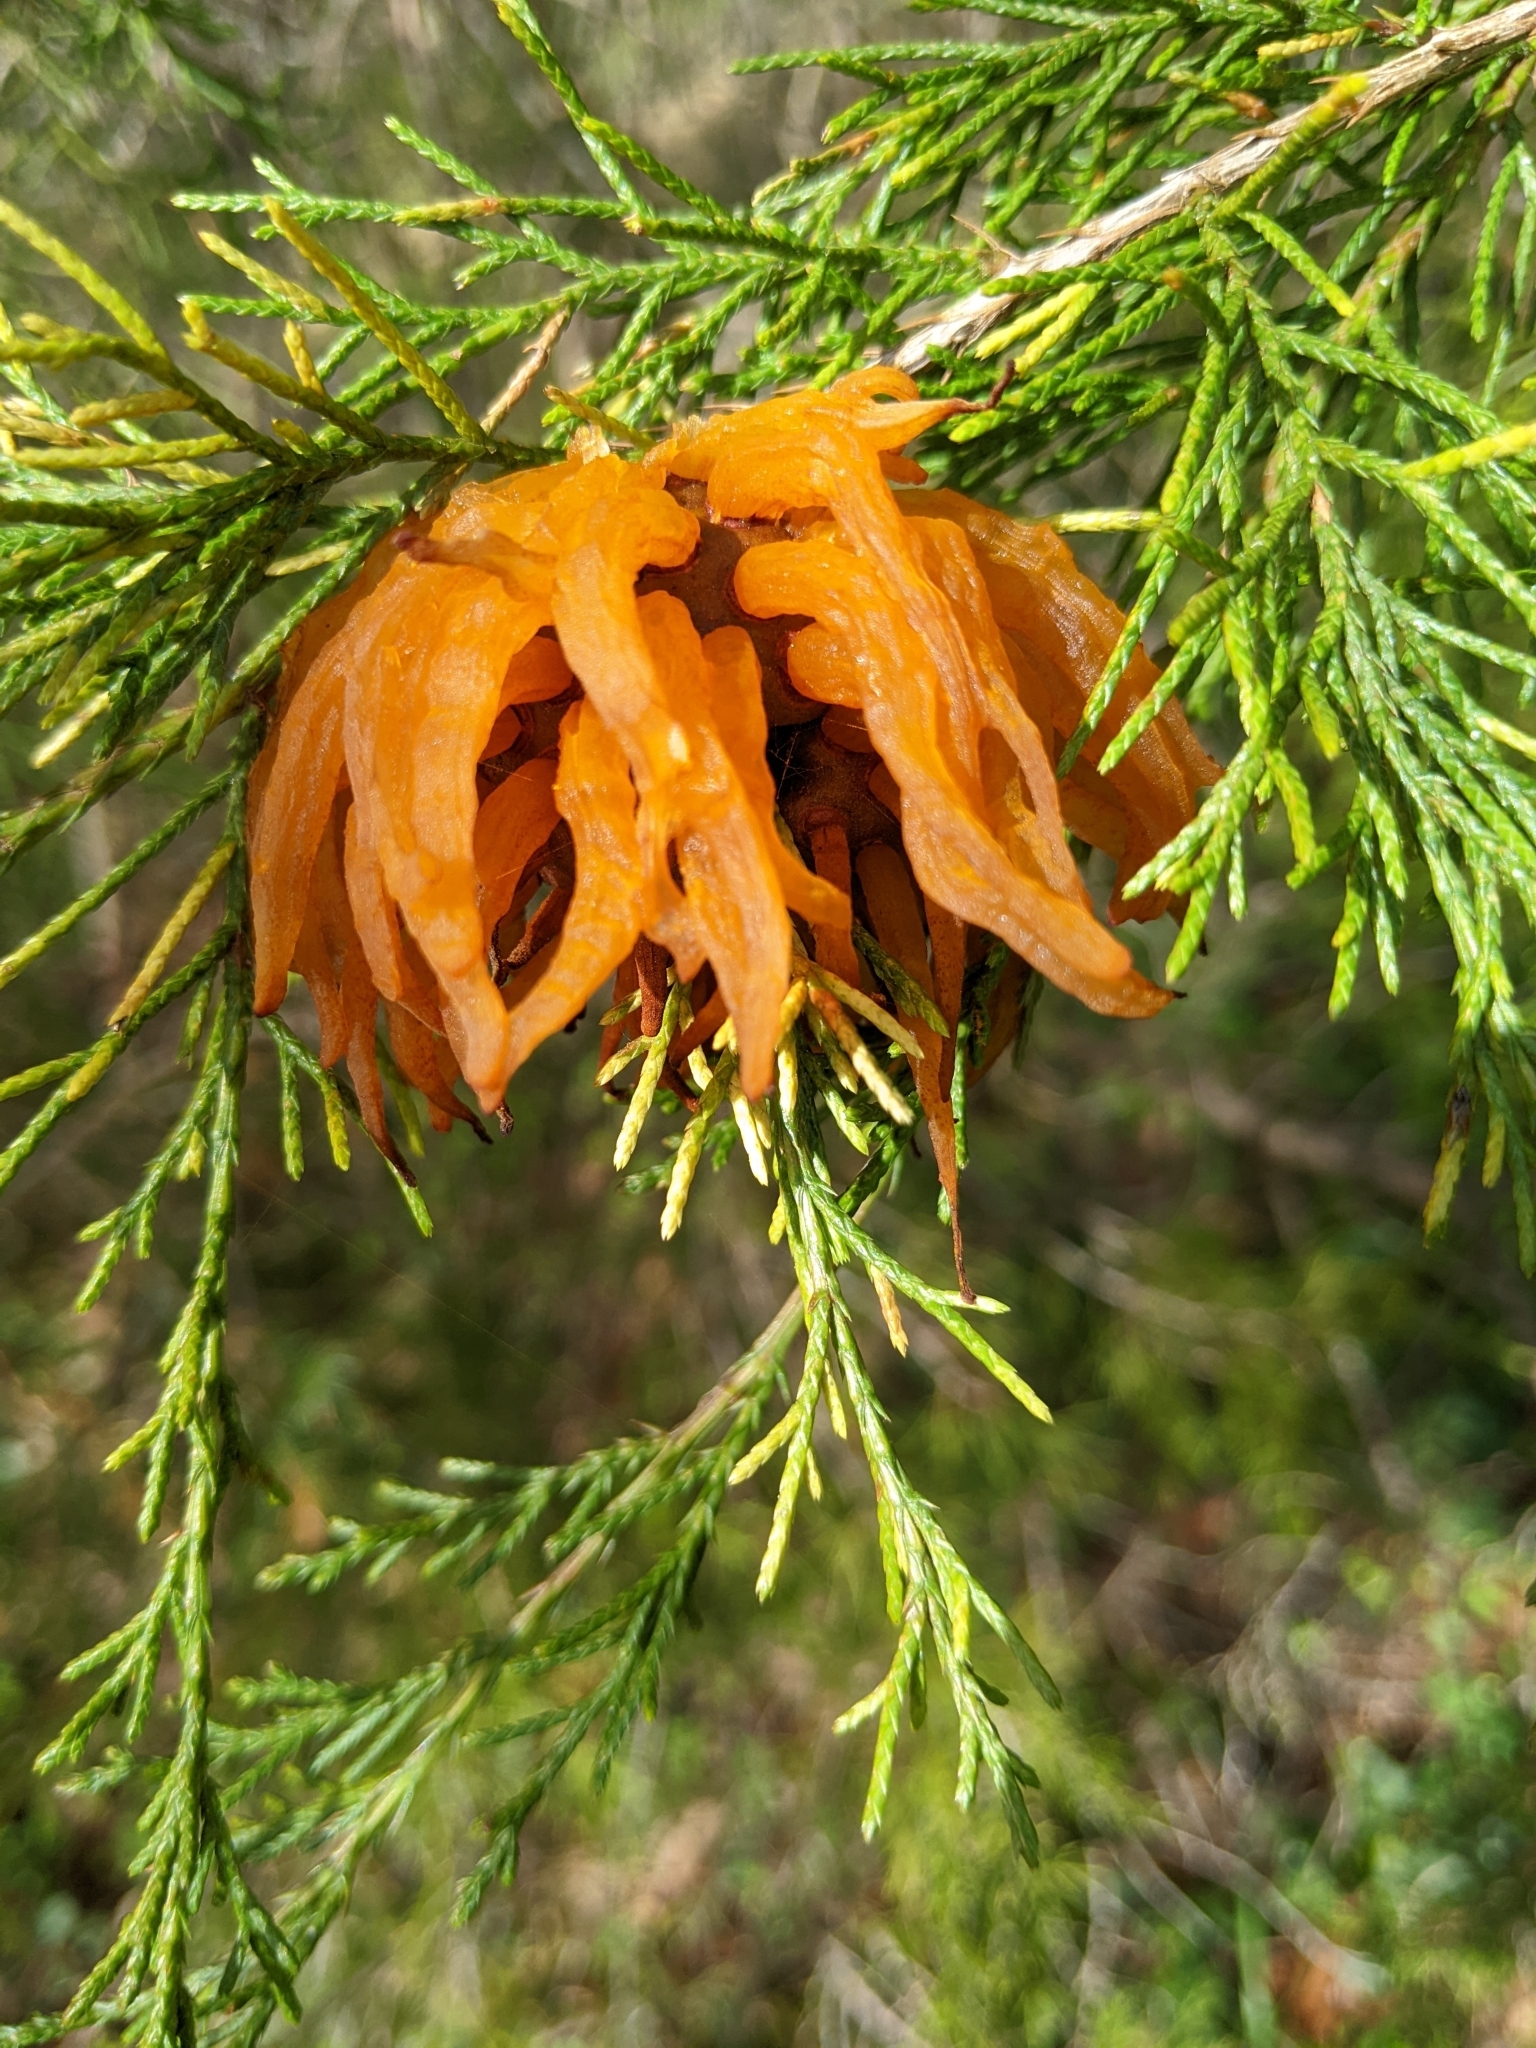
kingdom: Fungi
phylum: Basidiomycota
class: Pucciniomycetes
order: Pucciniales
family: Gymnosporangiaceae
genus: Gymnosporangium
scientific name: Gymnosporangium juniperi-virginianae
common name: Juniper-apple rust
